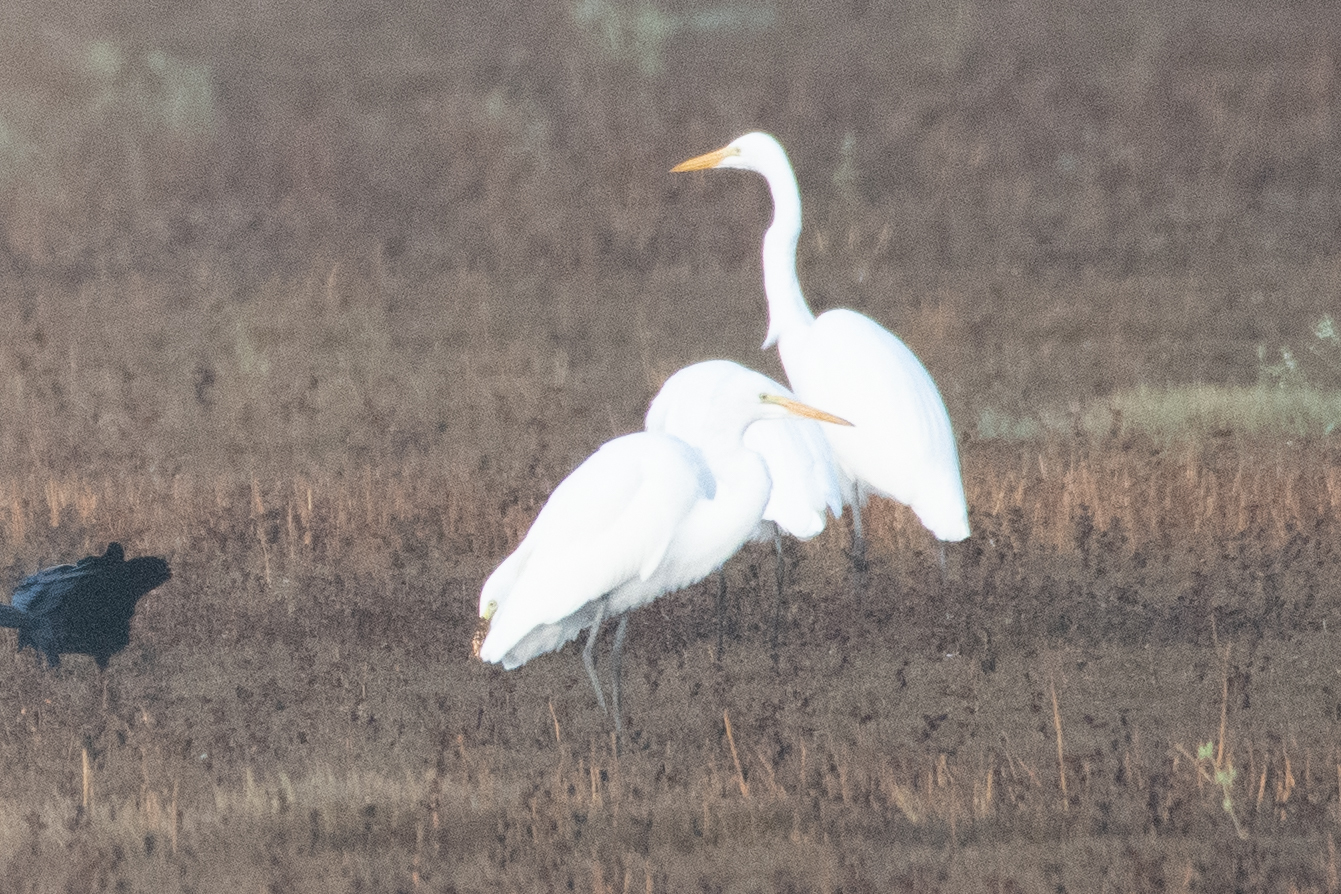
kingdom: Animalia
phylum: Chordata
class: Aves
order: Pelecaniformes
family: Ardeidae
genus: Ardea
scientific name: Ardea alba
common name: Great egret
